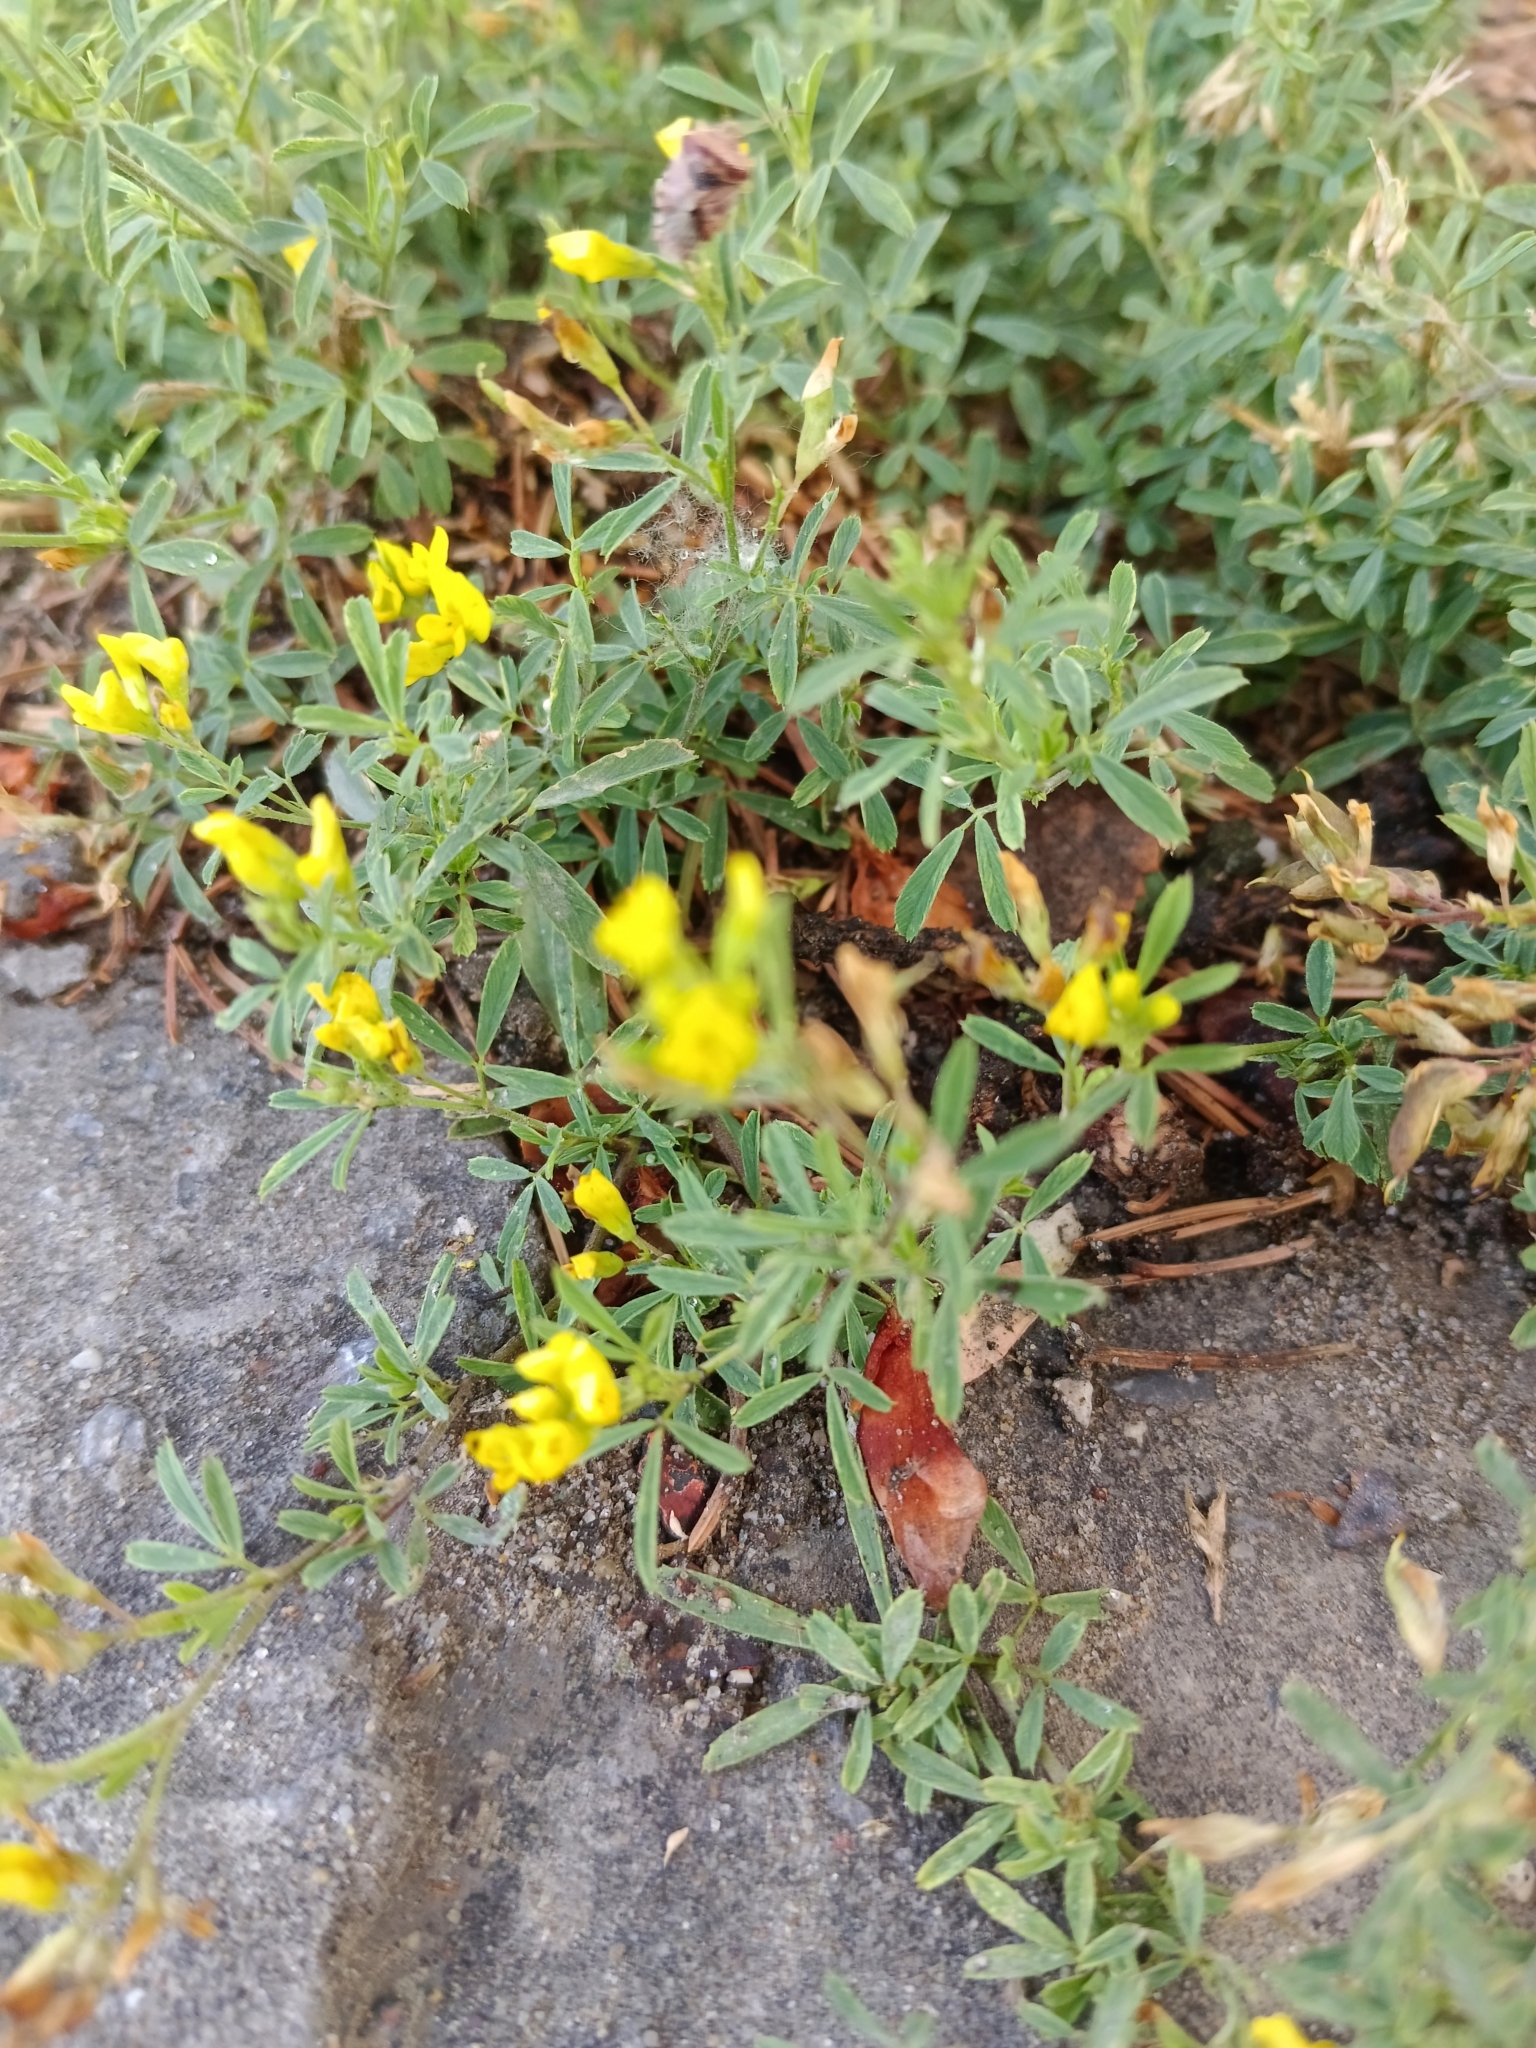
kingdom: Plantae
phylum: Tracheophyta
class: Magnoliopsida
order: Fabales
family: Fabaceae
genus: Medicago
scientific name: Medicago falcata
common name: Sickle medick
